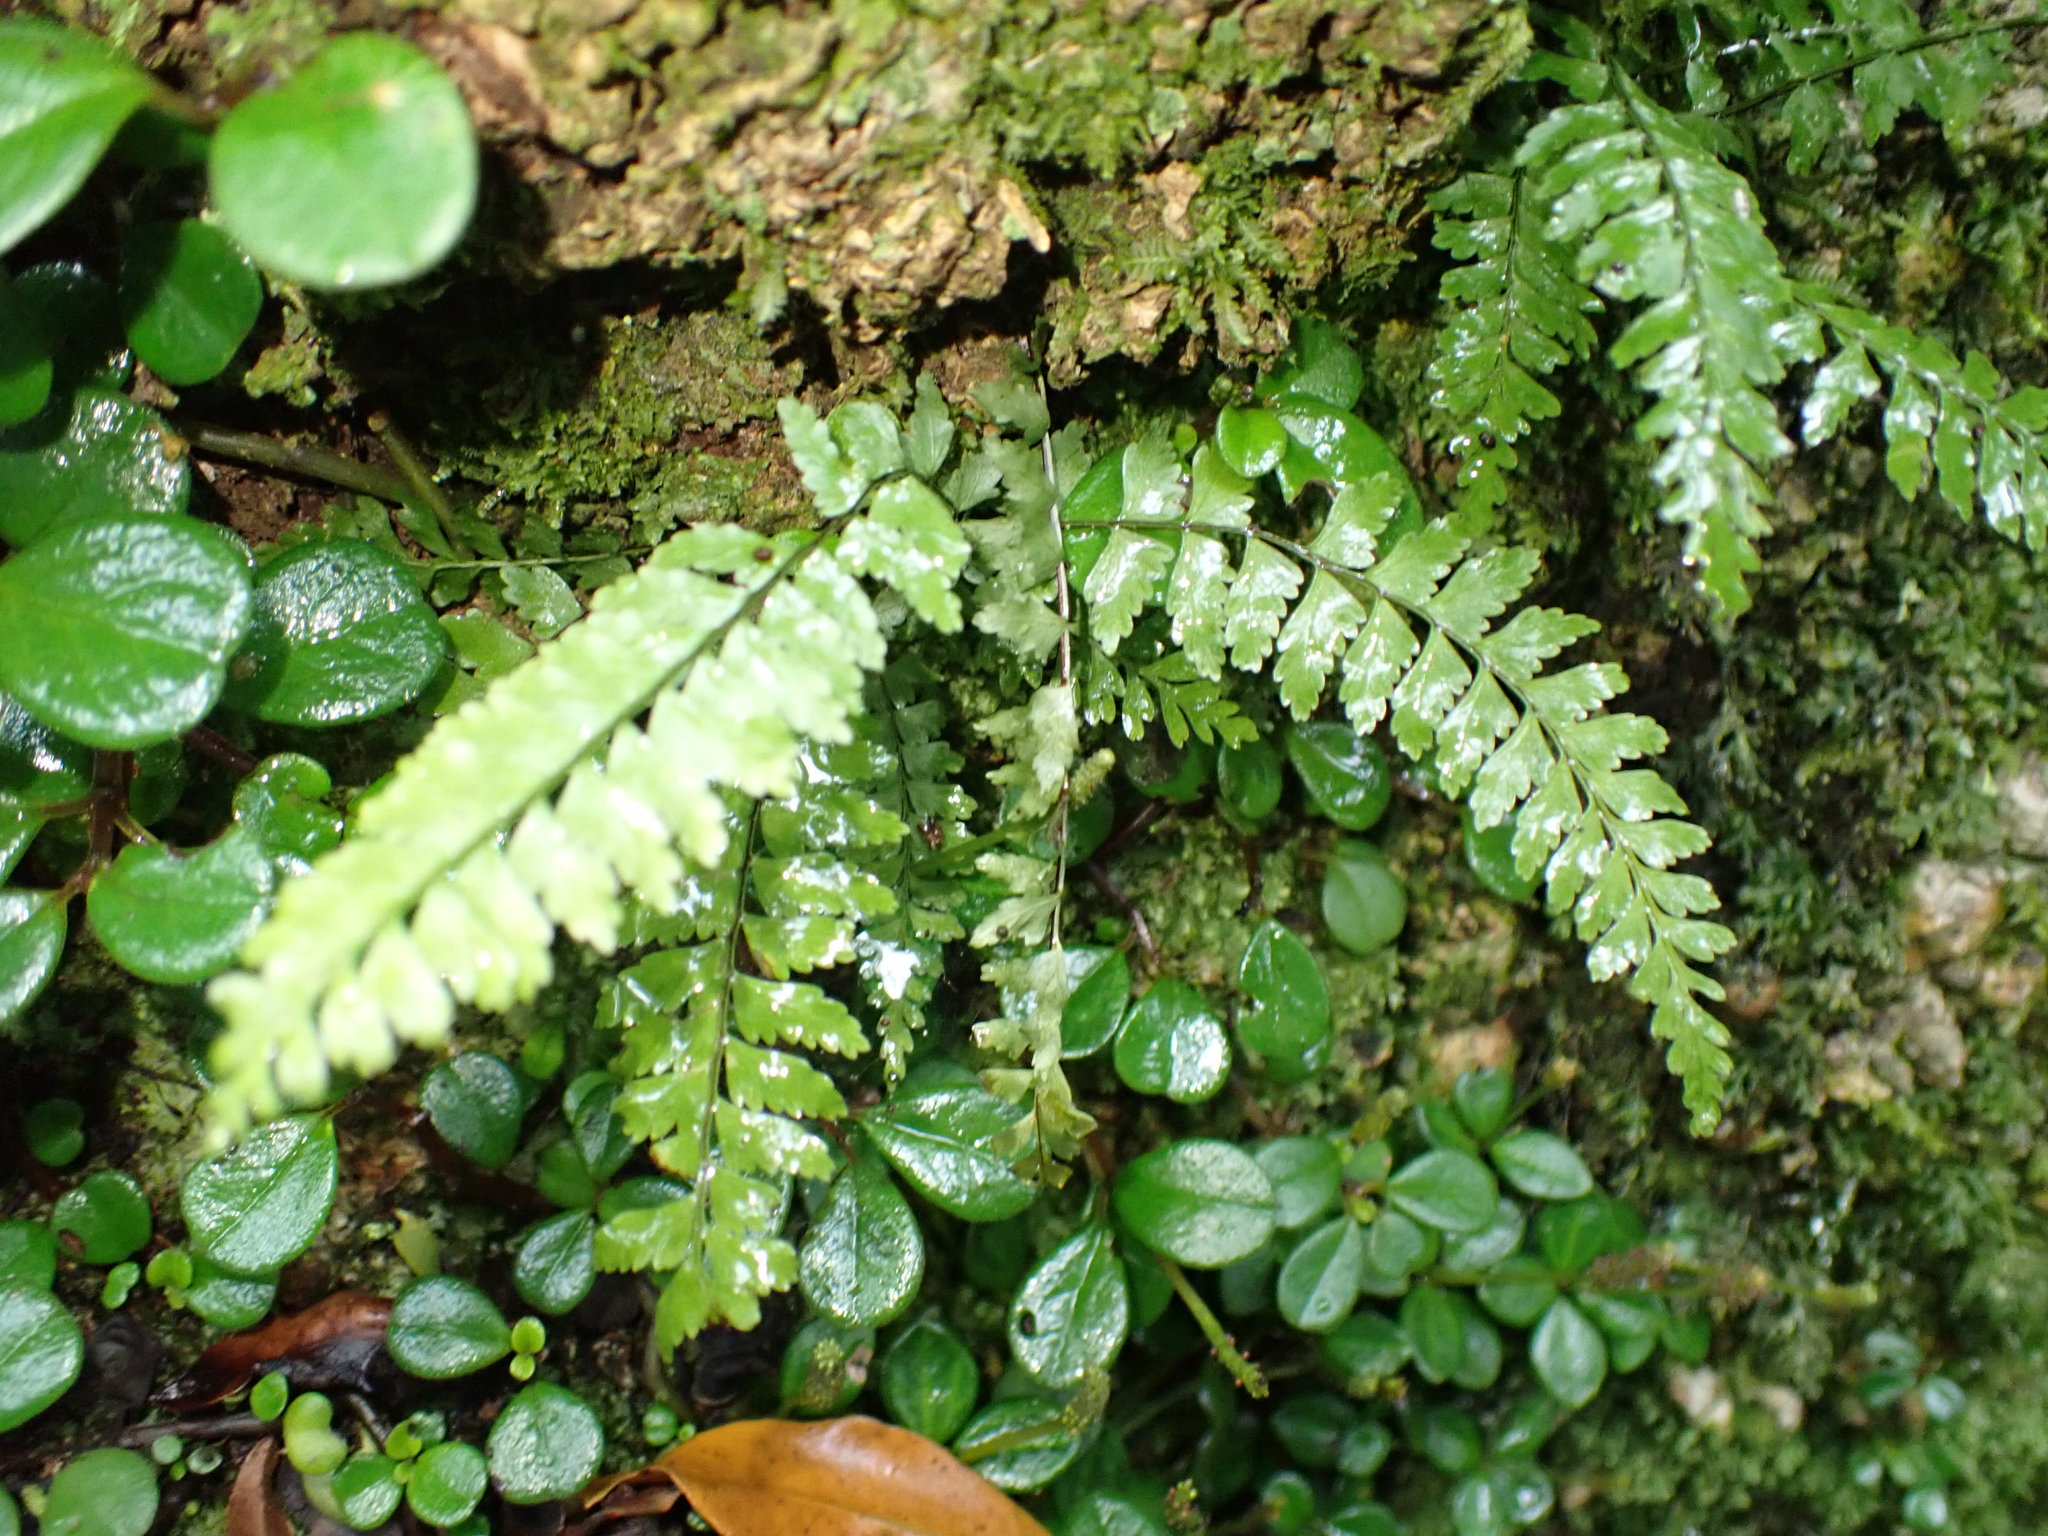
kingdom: Plantae
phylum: Tracheophyta
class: Polypodiopsida
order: Polypodiales
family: Aspleniaceae
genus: Asplenium
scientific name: Asplenium lunulatum
